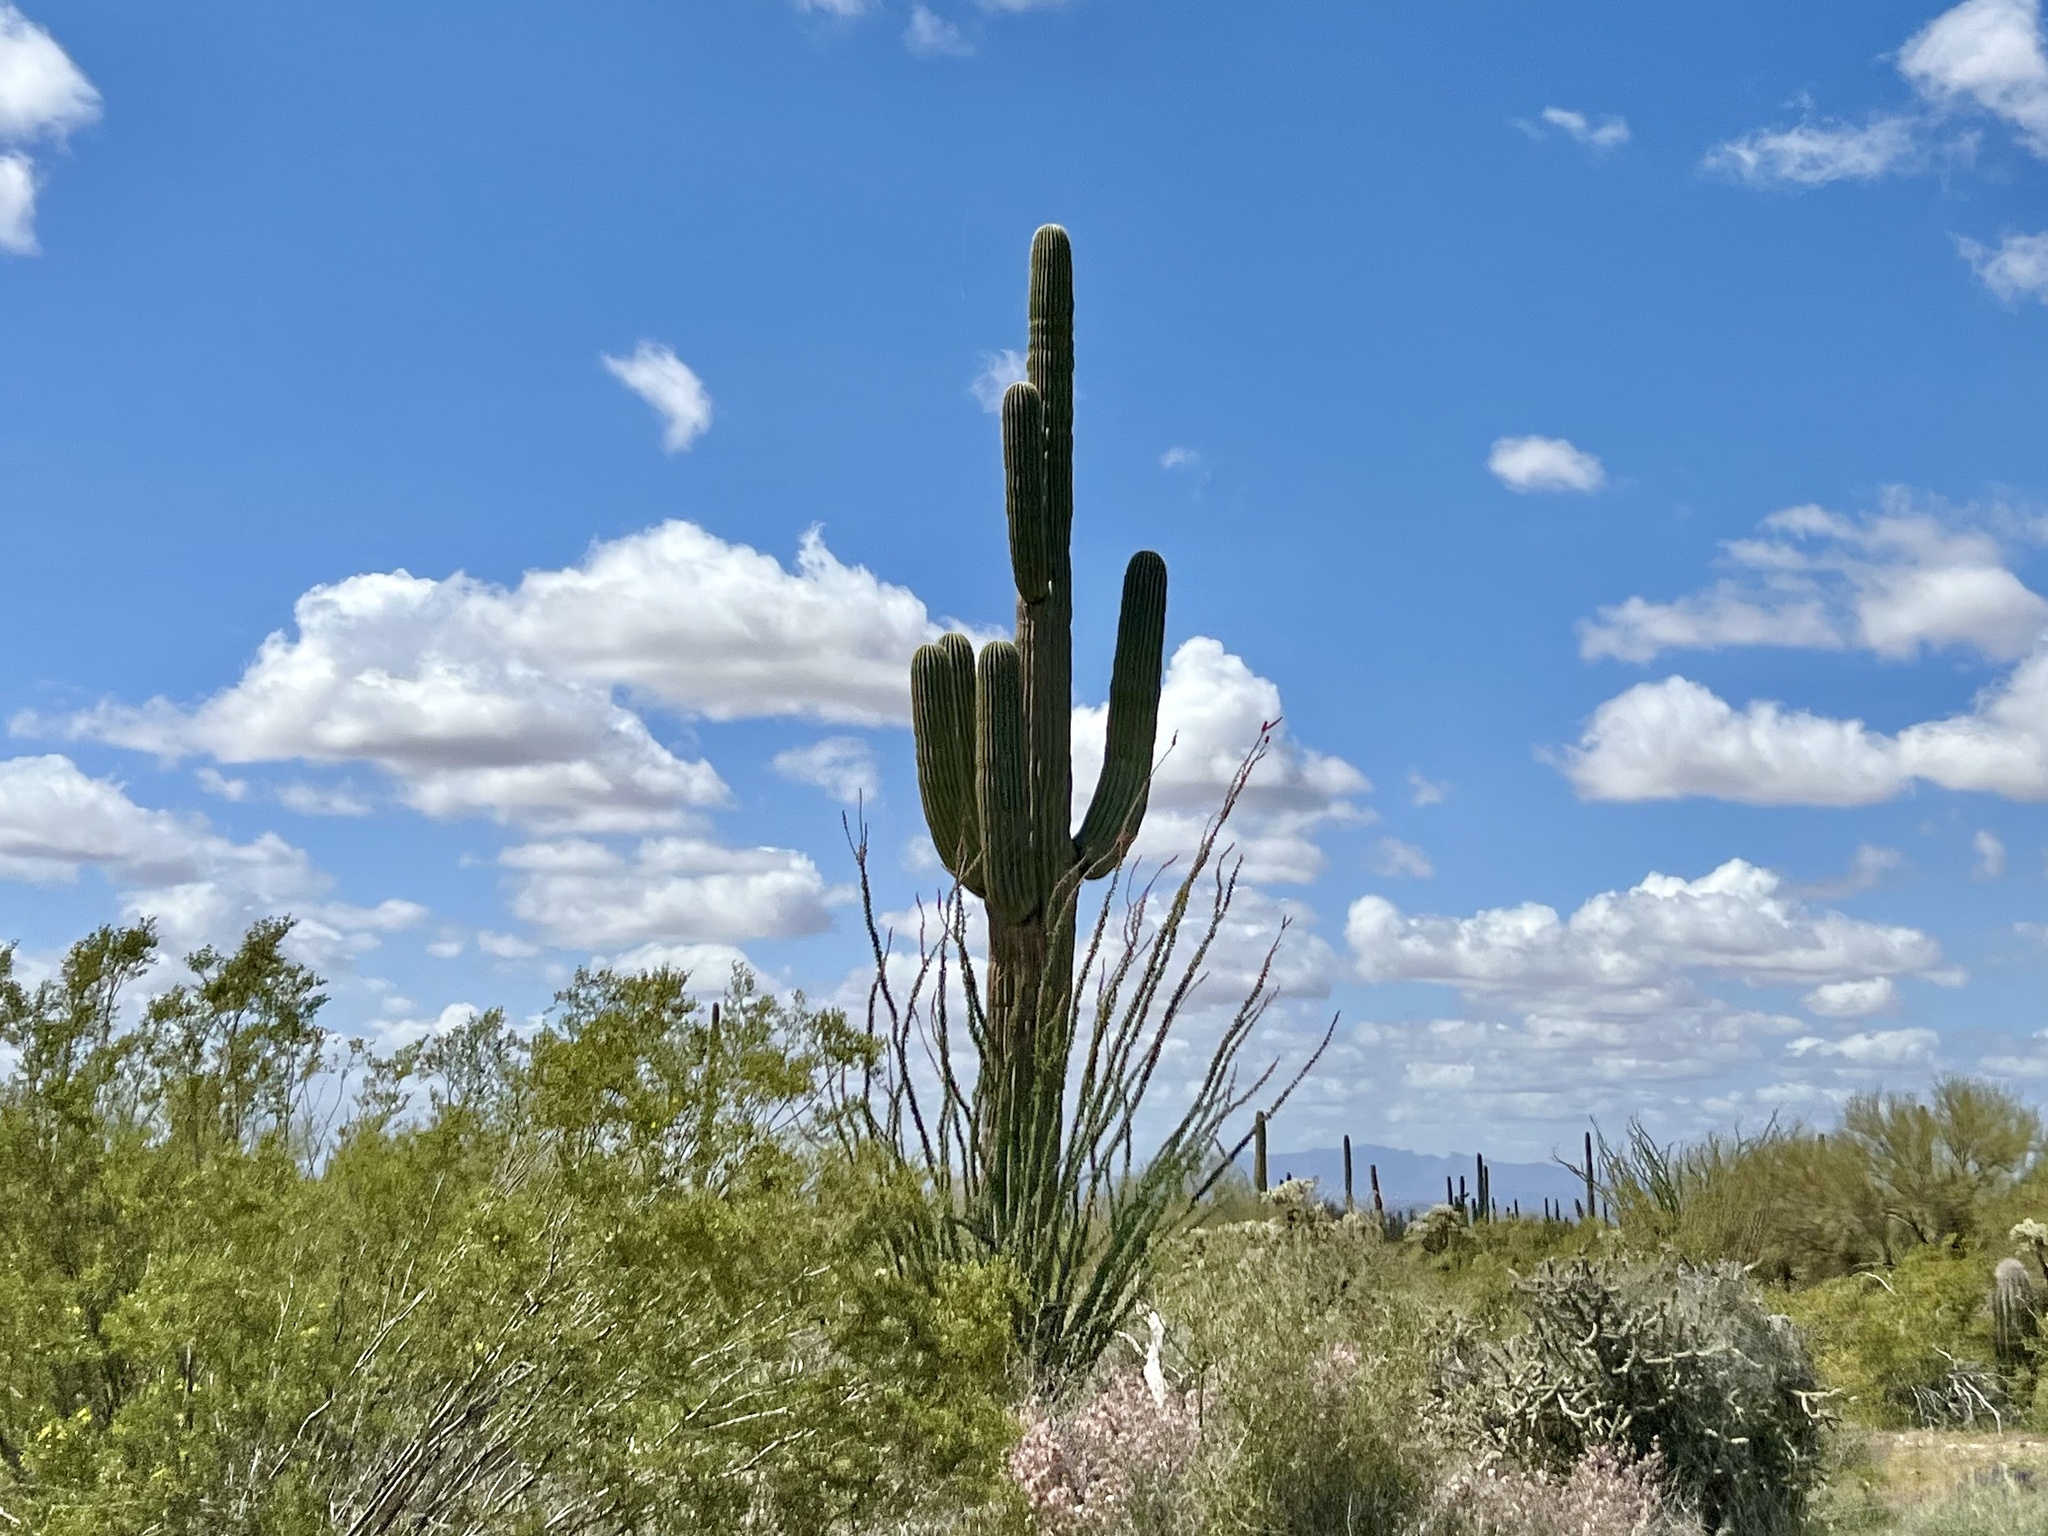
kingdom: Plantae
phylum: Tracheophyta
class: Magnoliopsida
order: Caryophyllales
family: Cactaceae
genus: Carnegiea
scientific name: Carnegiea gigantea
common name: Saguaro
